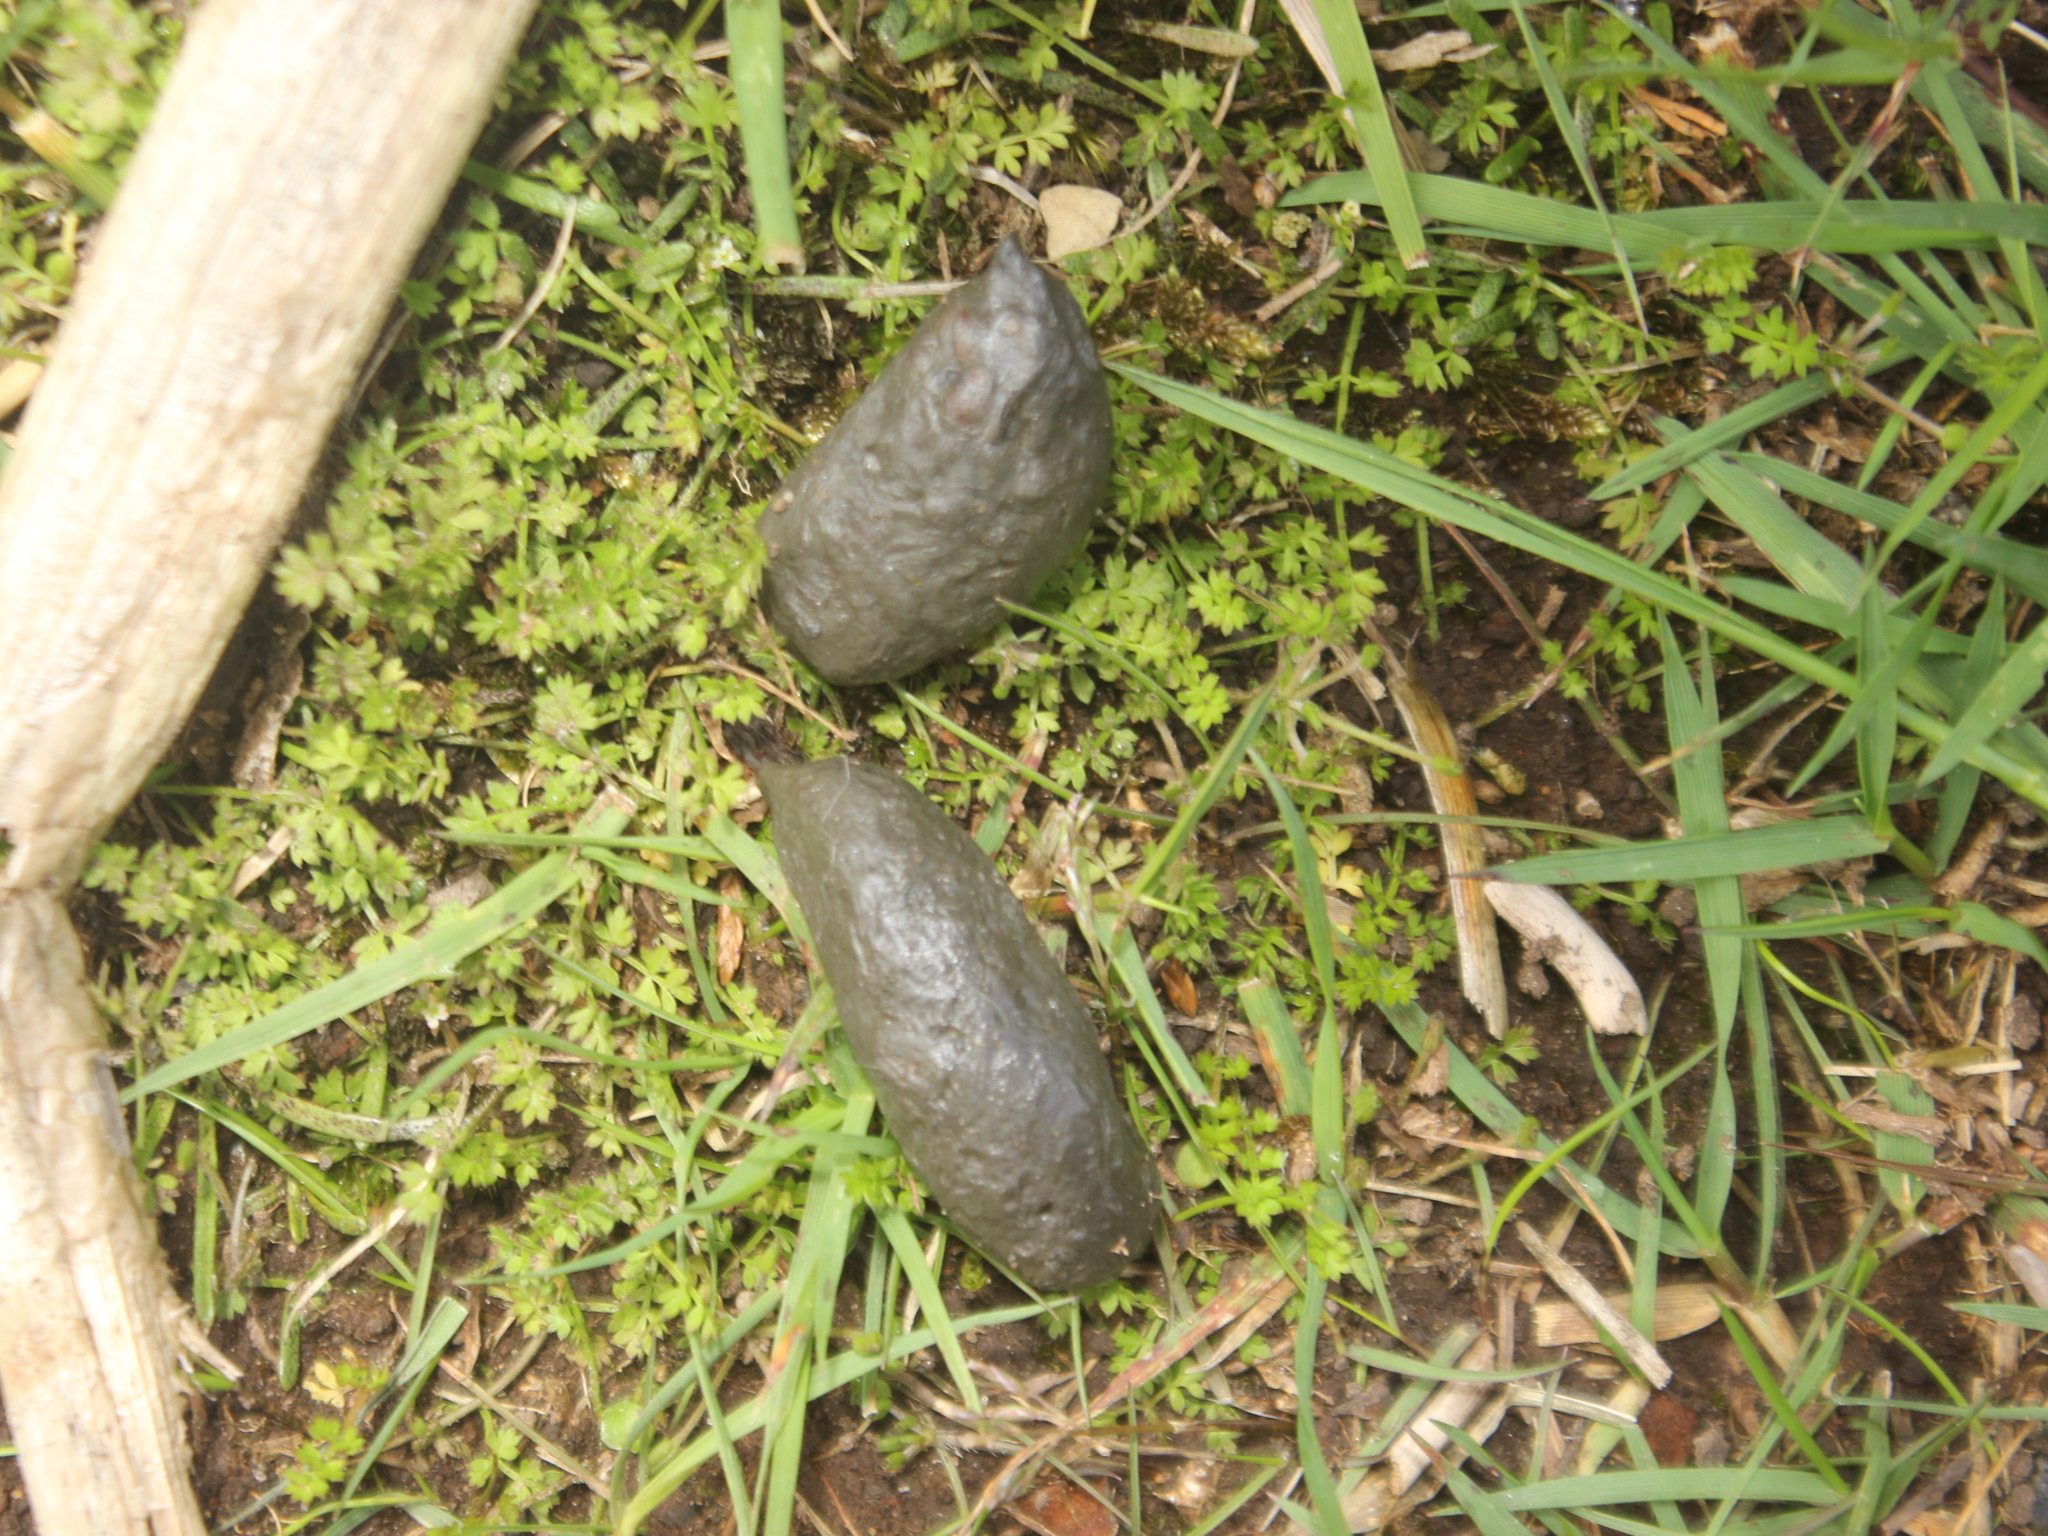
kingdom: Animalia
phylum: Chordata
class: Mammalia
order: Diprotodontia
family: Phalangeridae
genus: Trichosurus
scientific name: Trichosurus vulpecula
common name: Common brushtail
